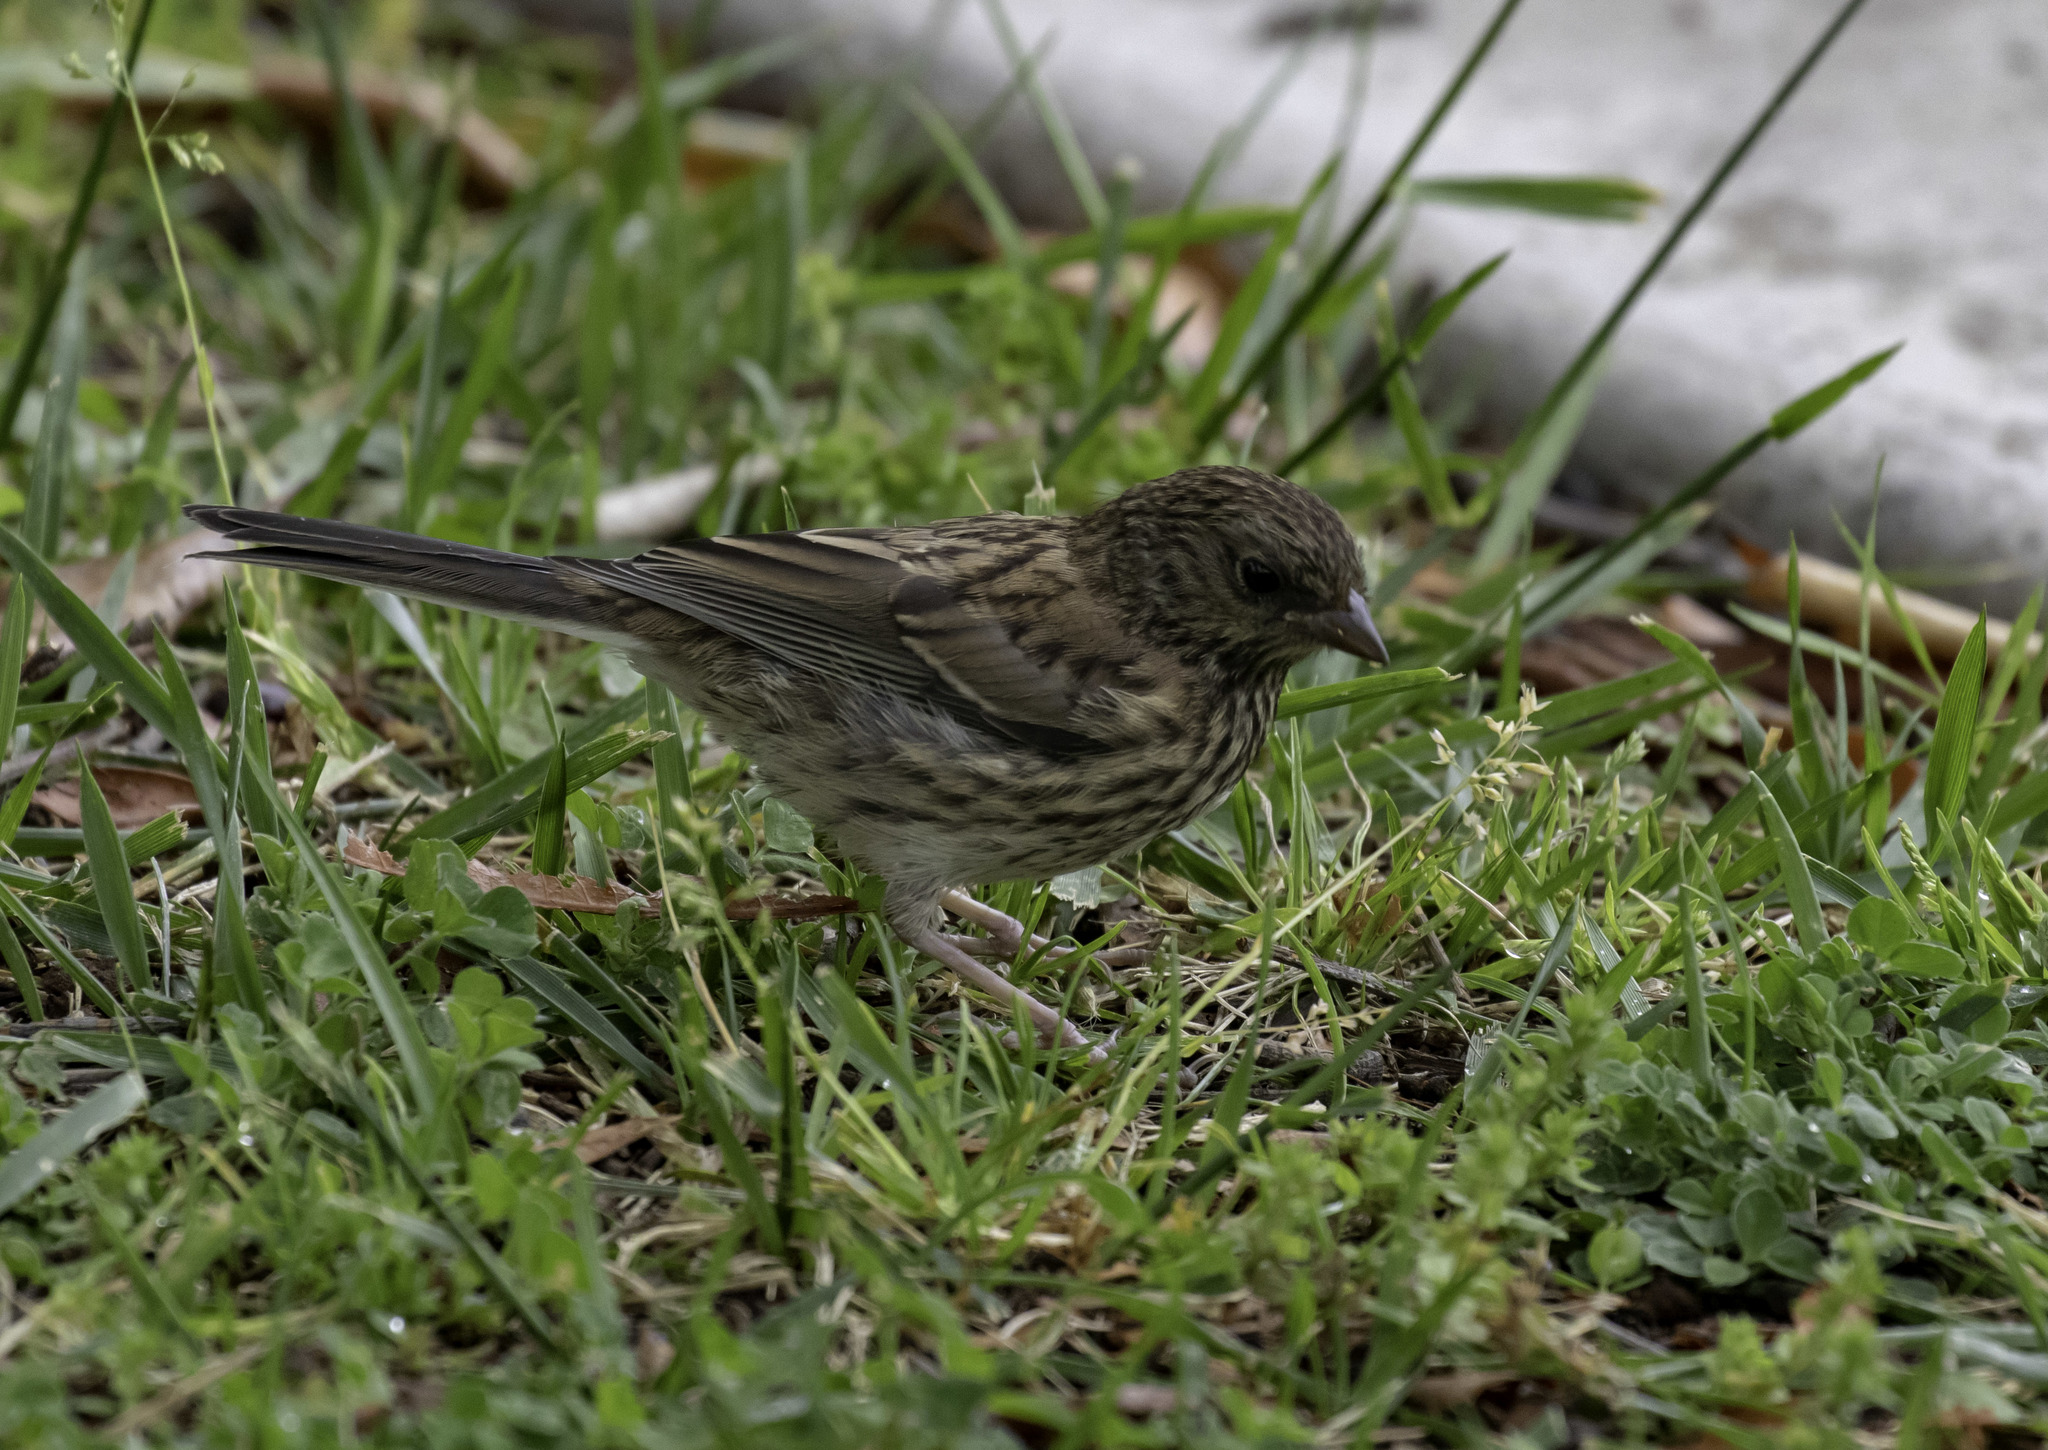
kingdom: Animalia
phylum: Chordata
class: Aves
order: Passeriformes
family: Passerellidae
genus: Junco
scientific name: Junco hyemalis
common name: Dark-eyed junco
